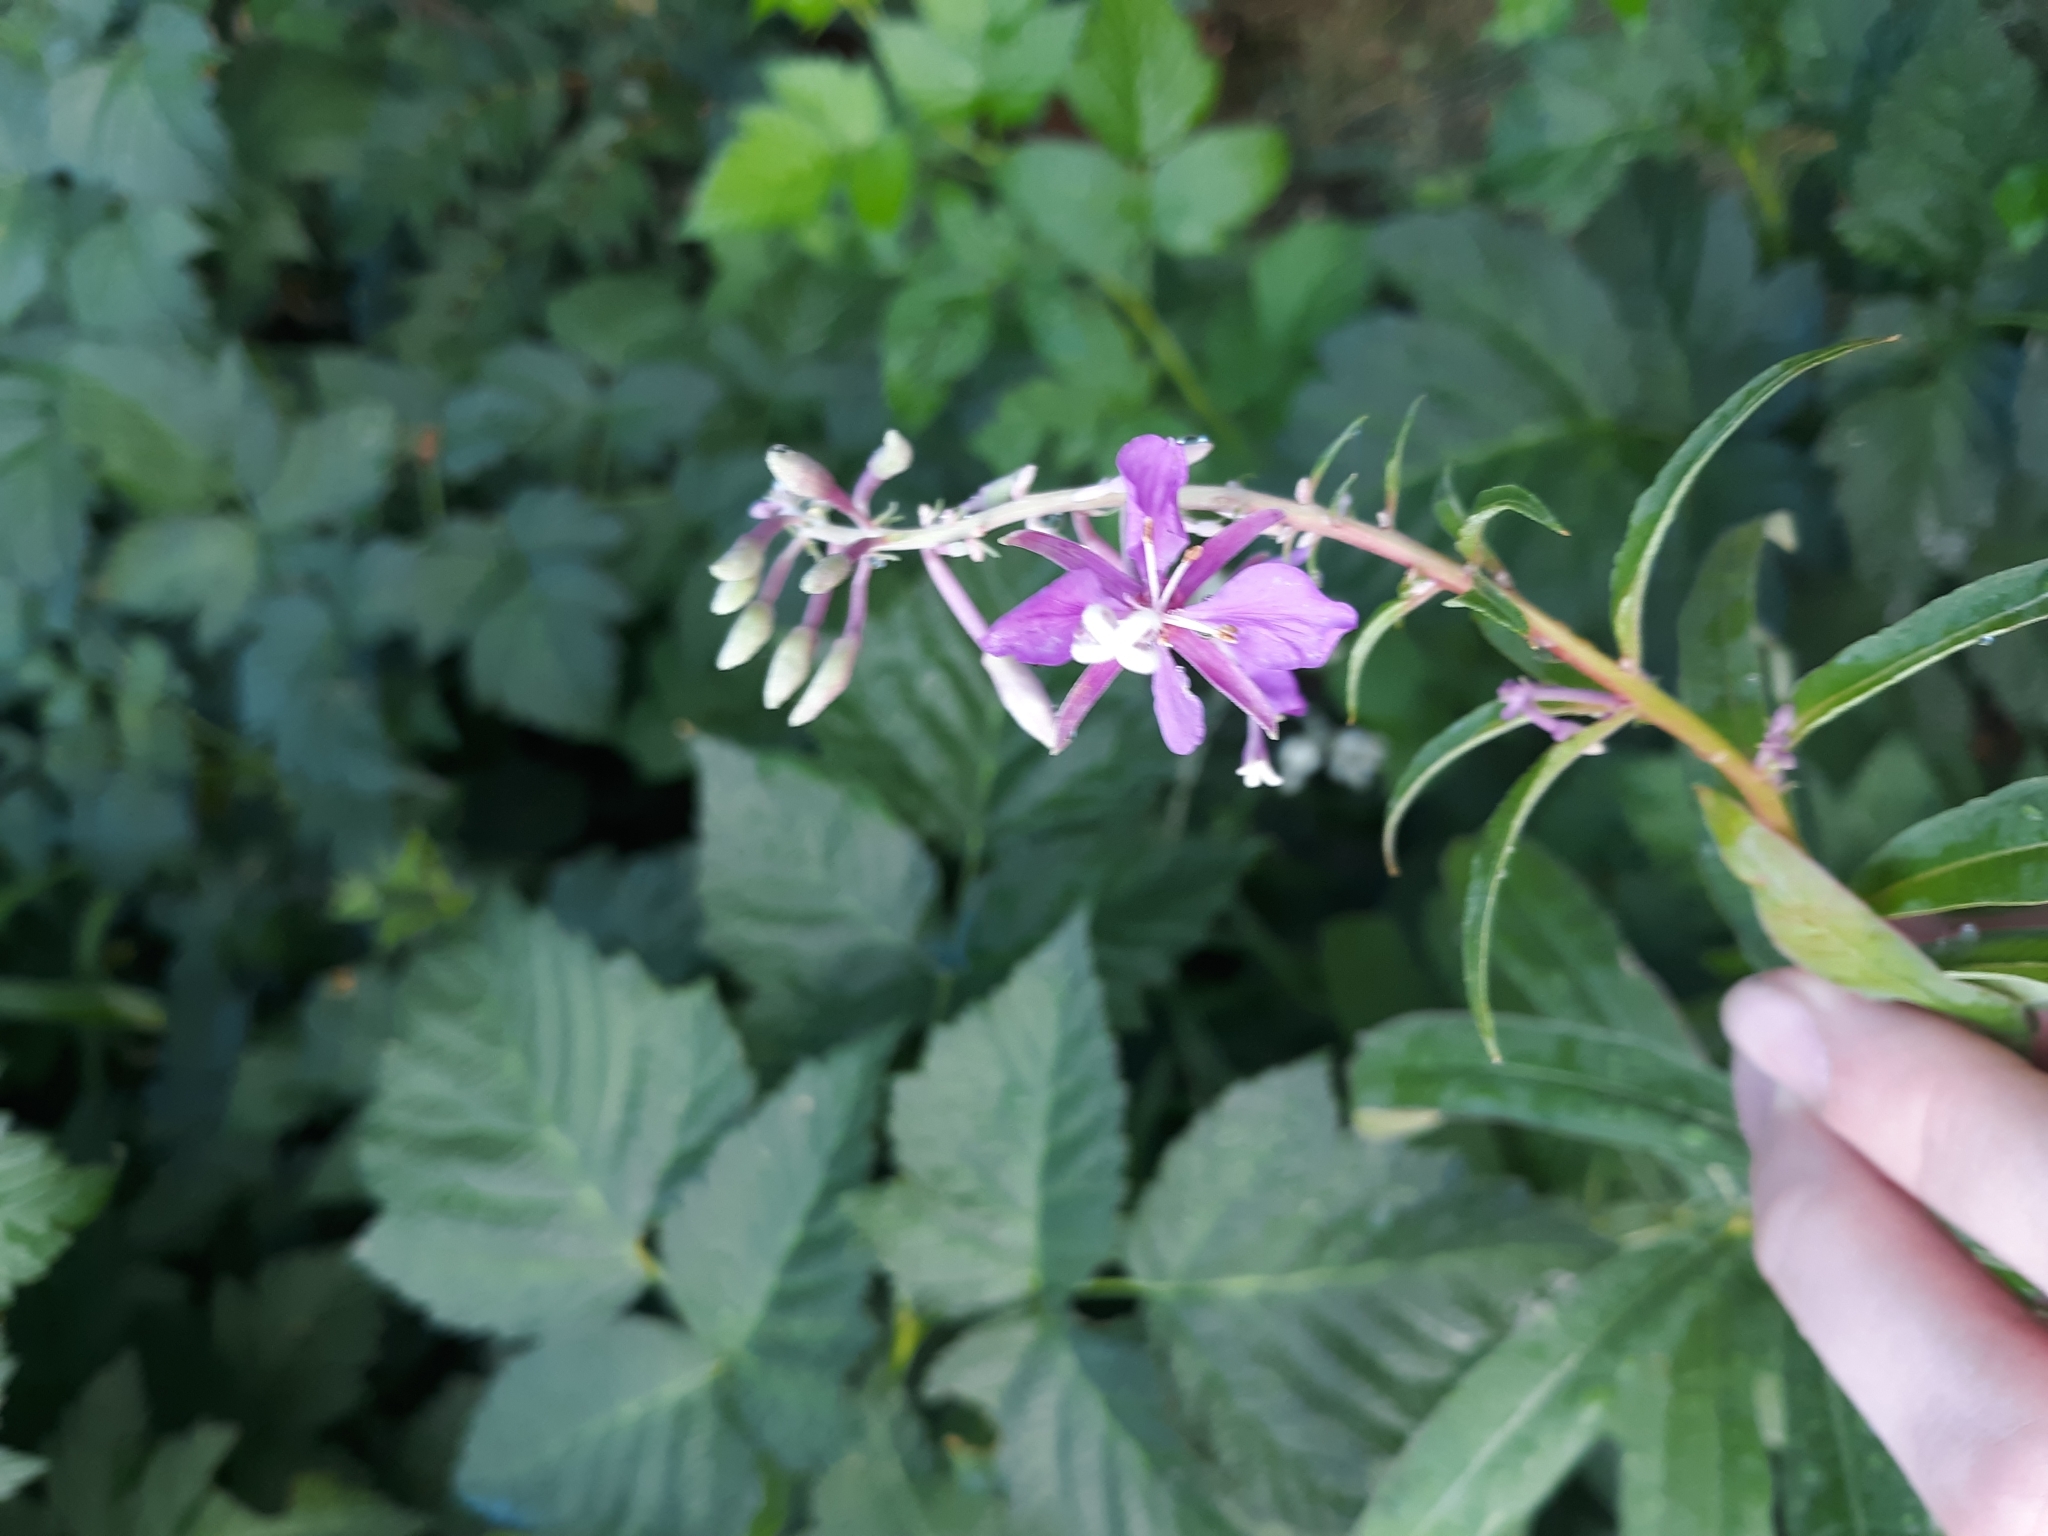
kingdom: Plantae
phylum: Tracheophyta
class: Magnoliopsida
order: Myrtales
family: Onagraceae
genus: Chamaenerion
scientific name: Chamaenerion angustifolium
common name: Fireweed
